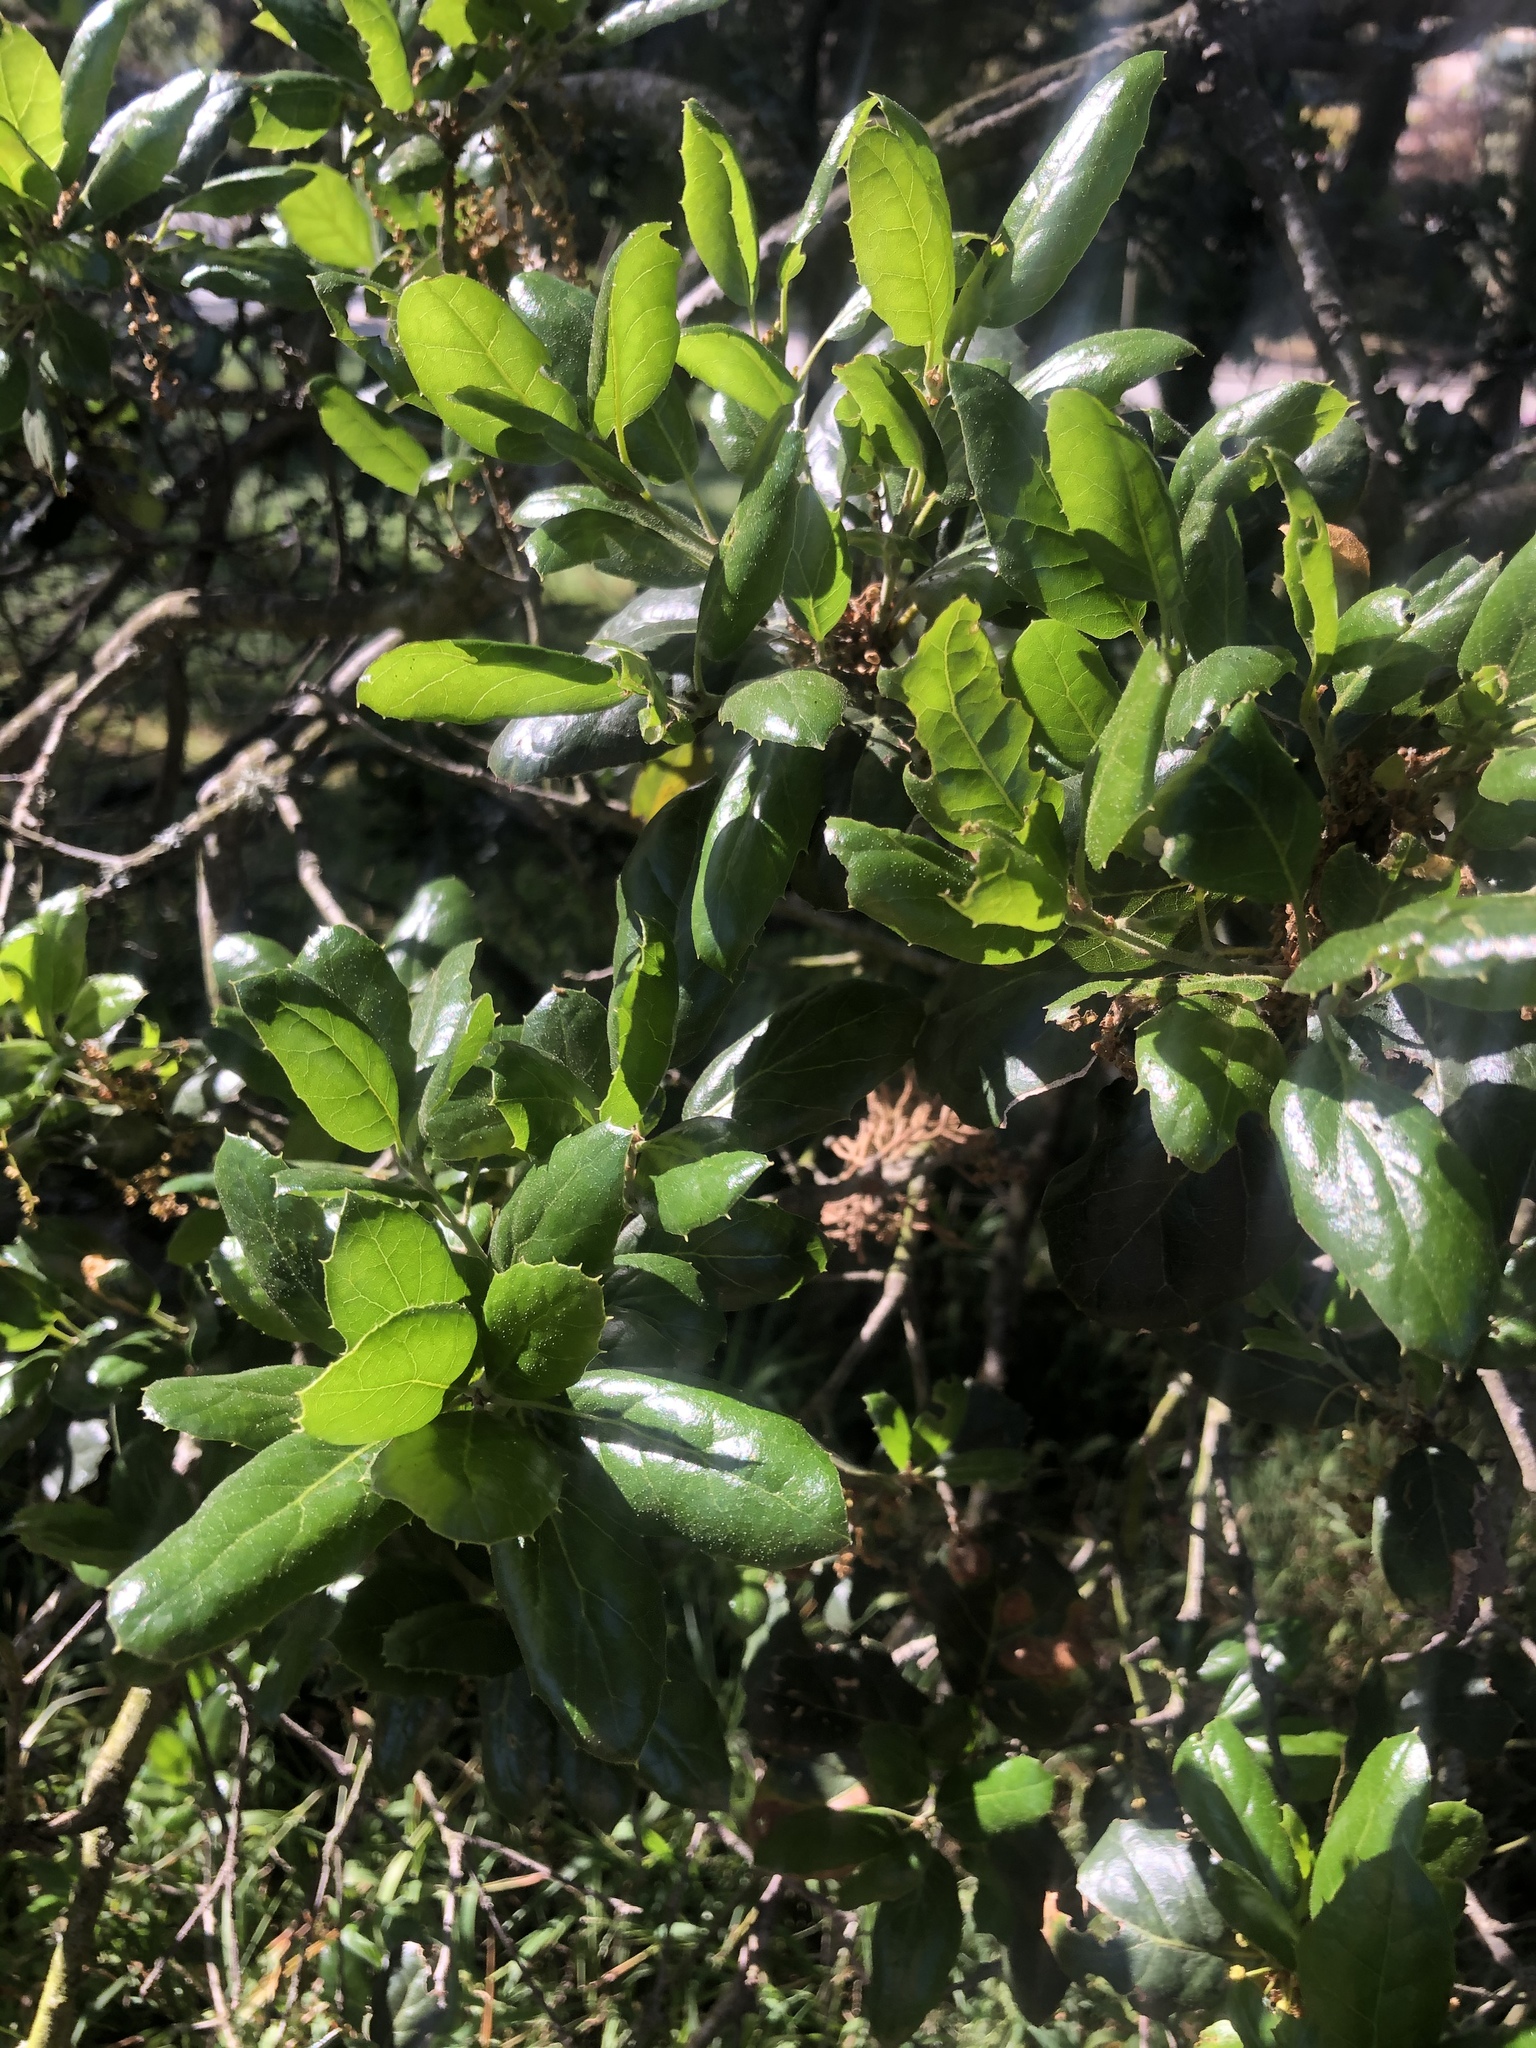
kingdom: Plantae
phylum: Tracheophyta
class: Magnoliopsida
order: Fagales
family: Fagaceae
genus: Quercus
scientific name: Quercus agrifolia
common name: California live oak
